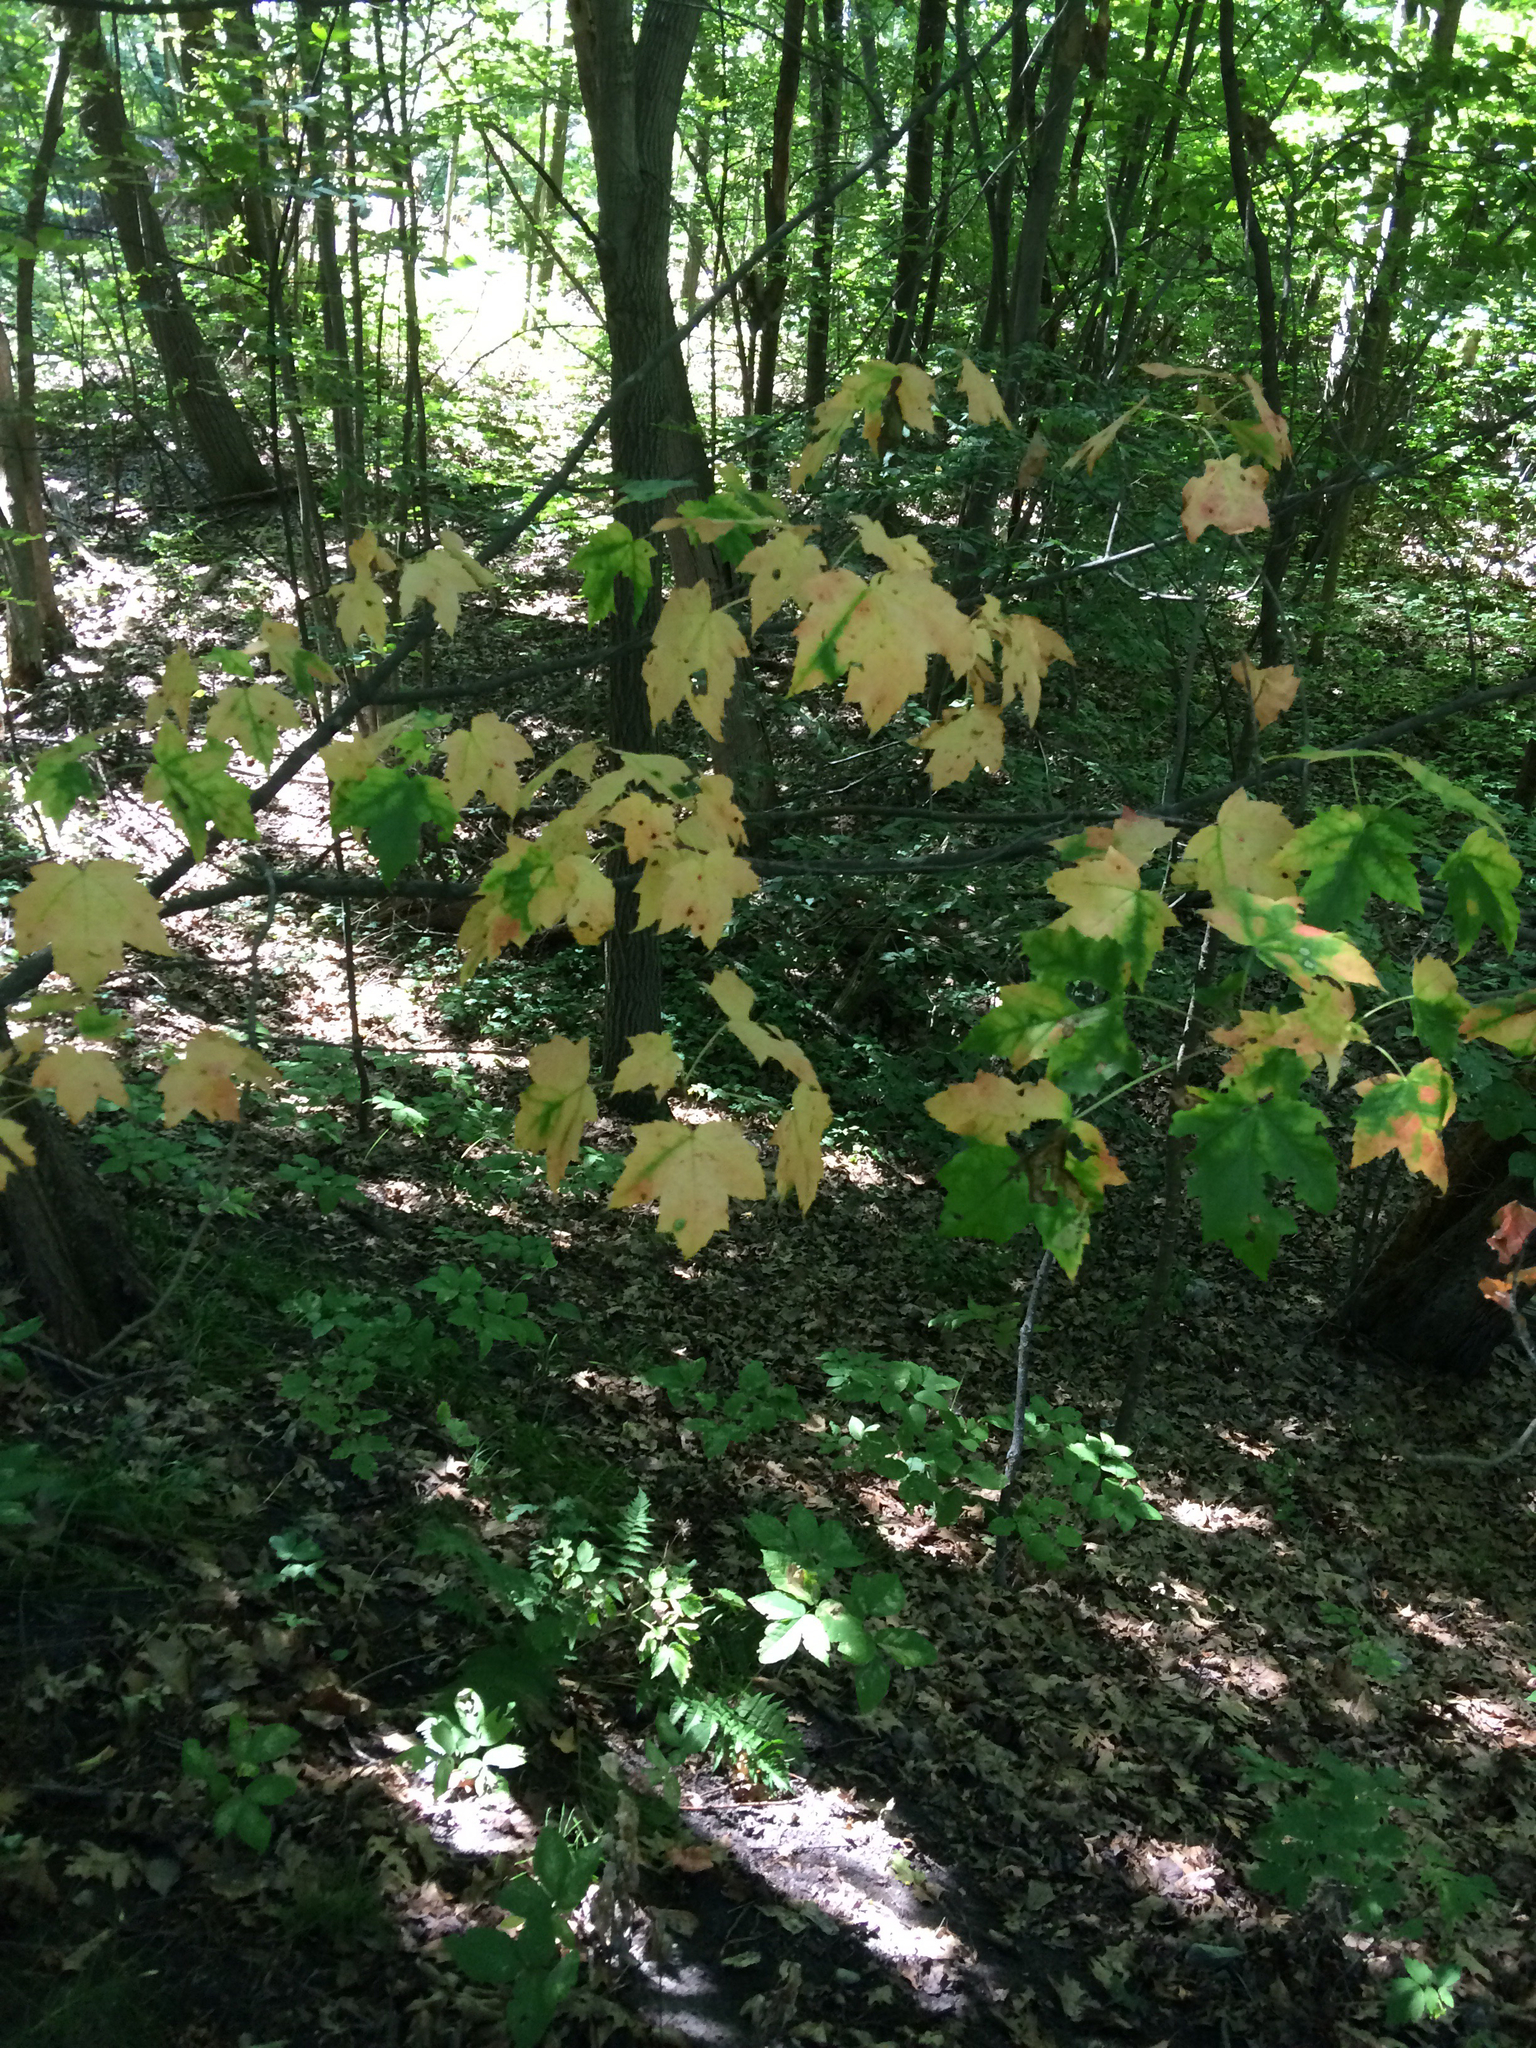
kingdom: Plantae
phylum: Tracheophyta
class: Magnoliopsida
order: Sapindales
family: Sapindaceae
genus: Acer
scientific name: Acer rubrum
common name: Red maple
